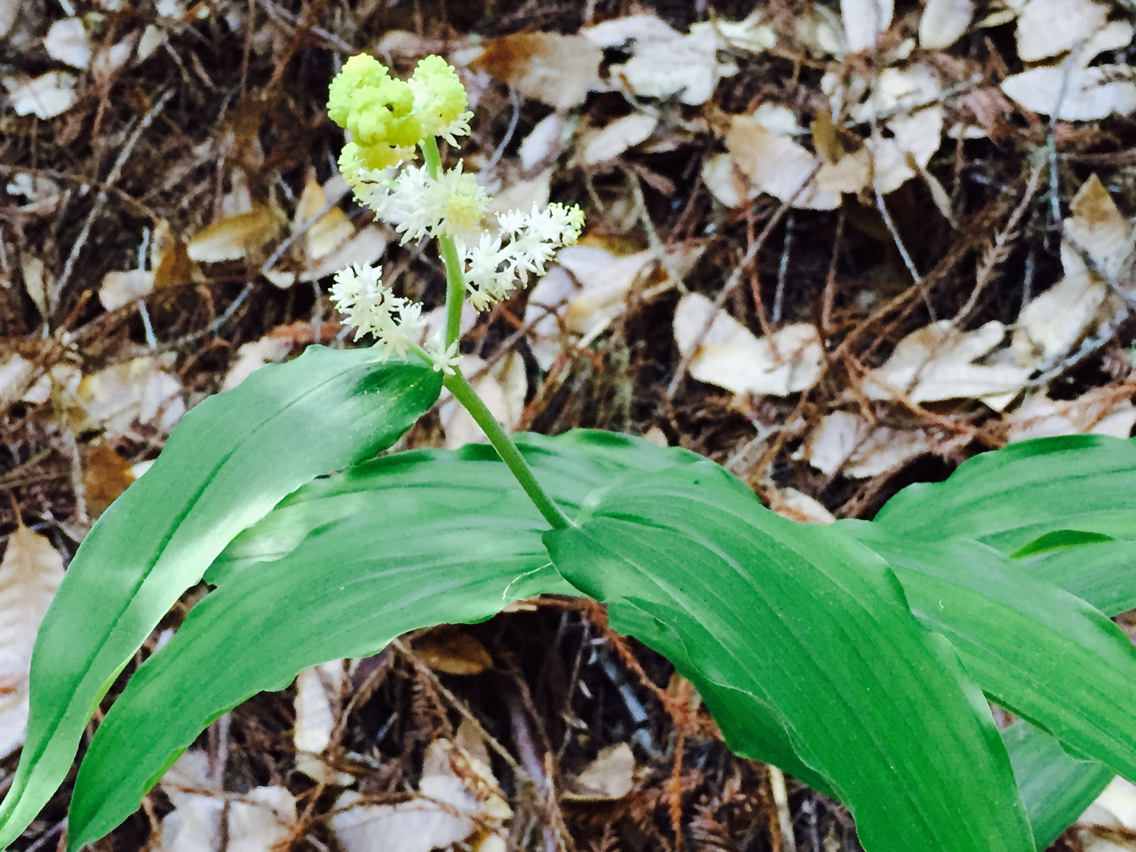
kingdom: Plantae
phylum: Tracheophyta
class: Liliopsida
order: Asparagales
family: Asparagaceae
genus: Maianthemum
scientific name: Maianthemum racemosum
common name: False spikenard
